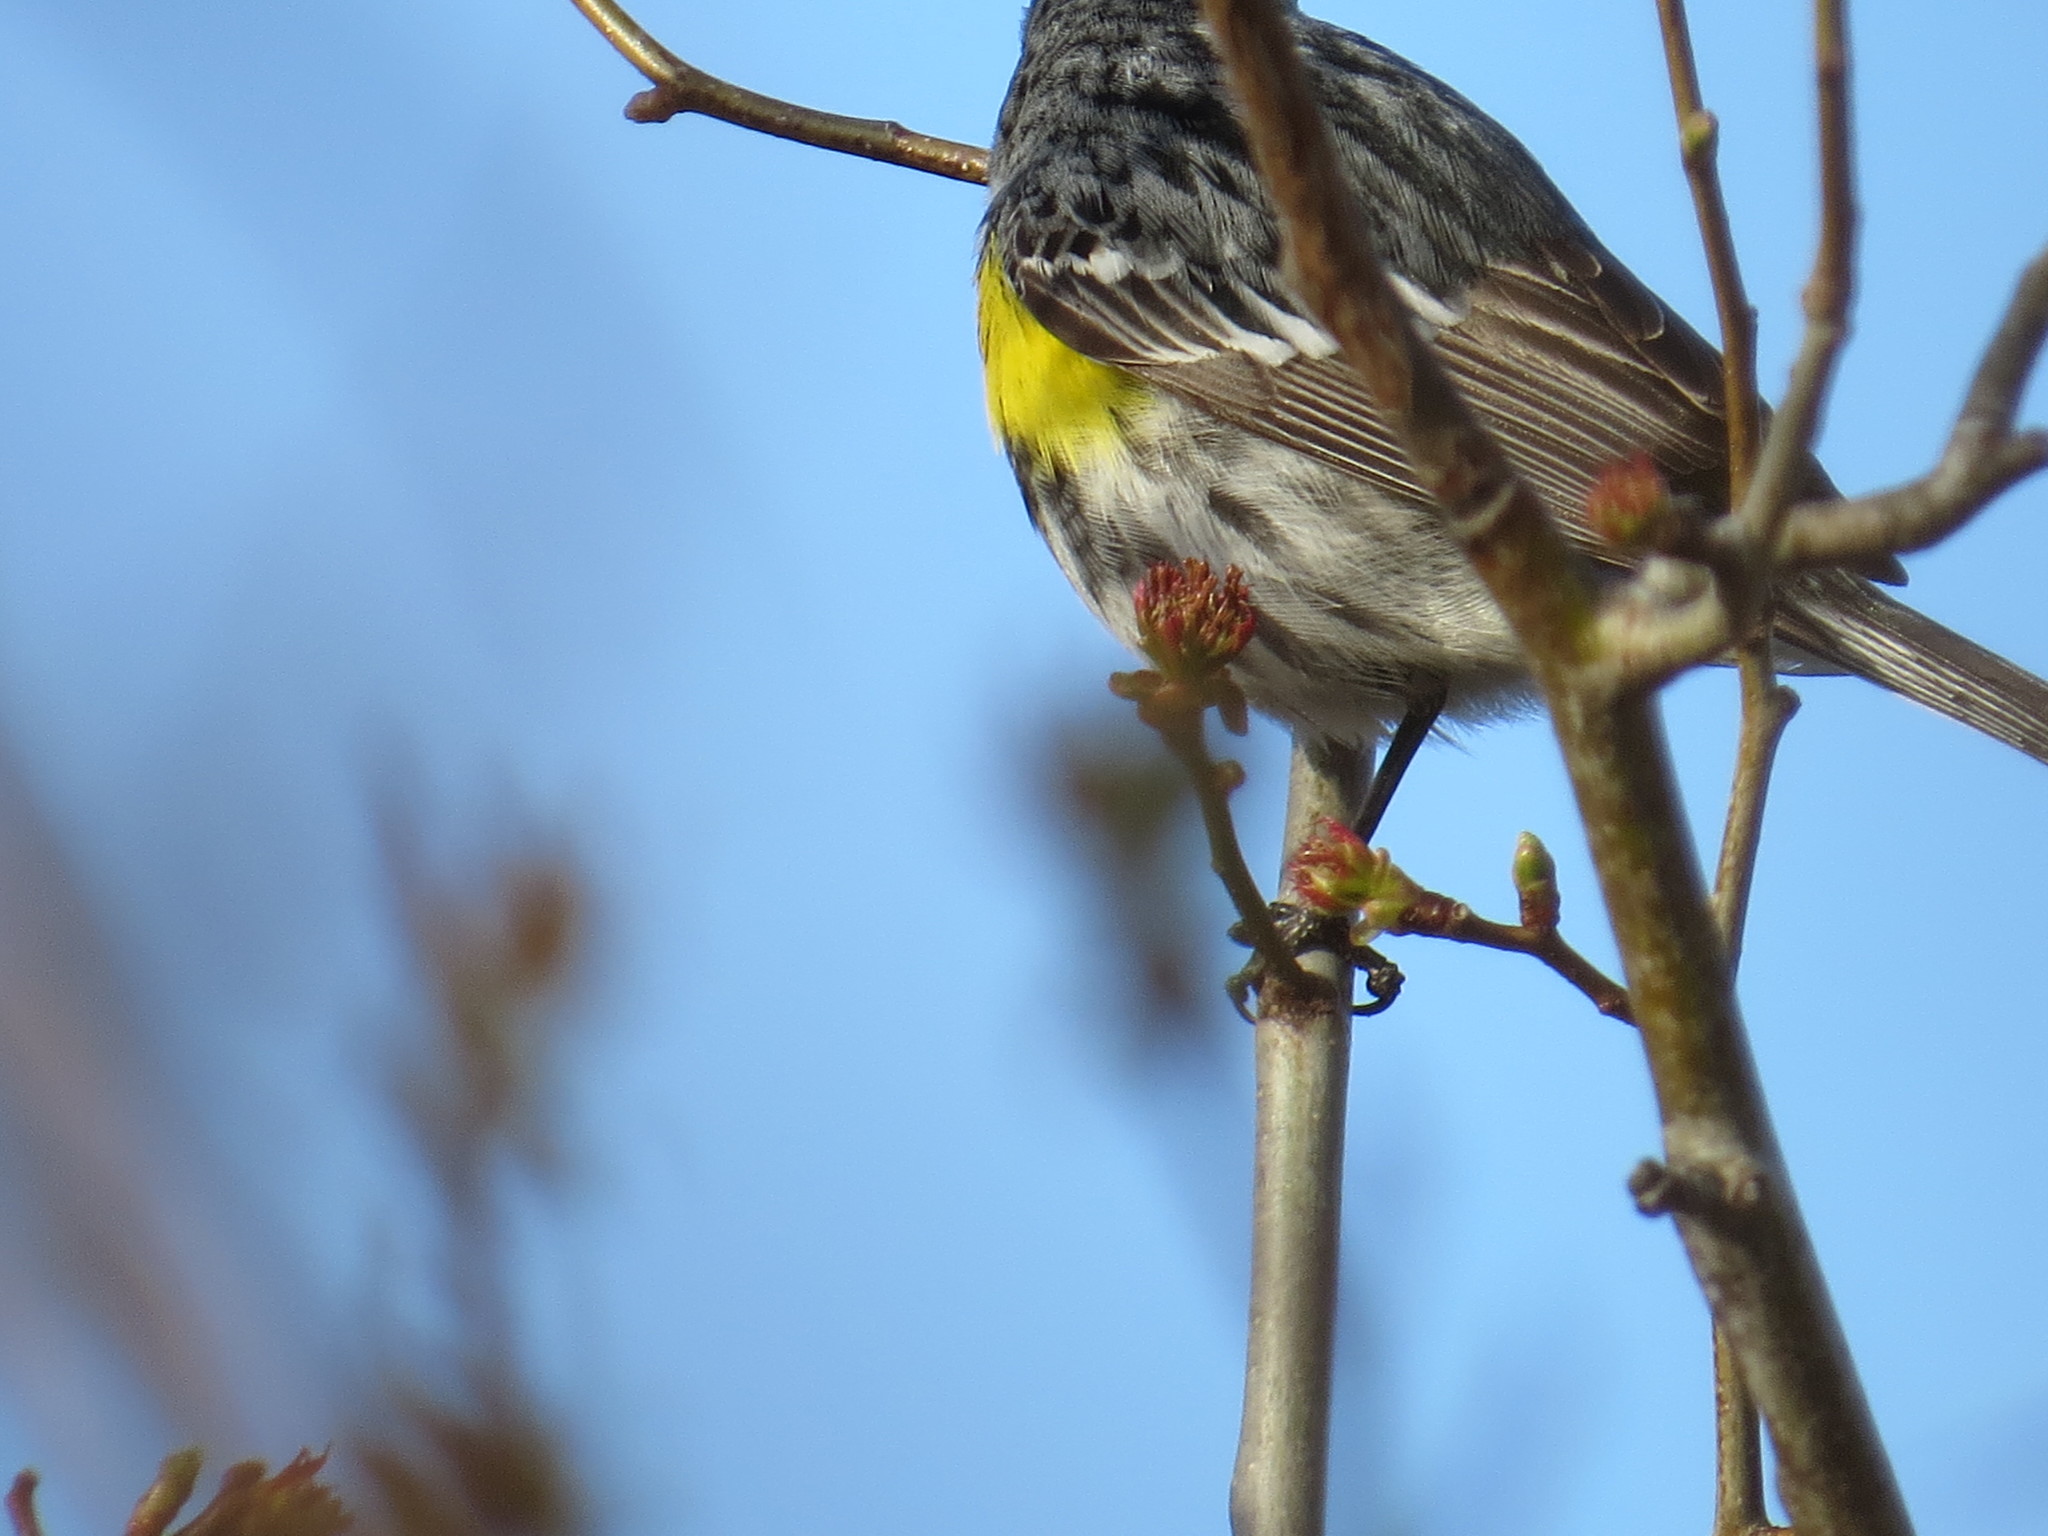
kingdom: Animalia
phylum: Chordata
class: Aves
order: Passeriformes
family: Parulidae
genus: Setophaga
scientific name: Setophaga coronata
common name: Myrtle warbler
